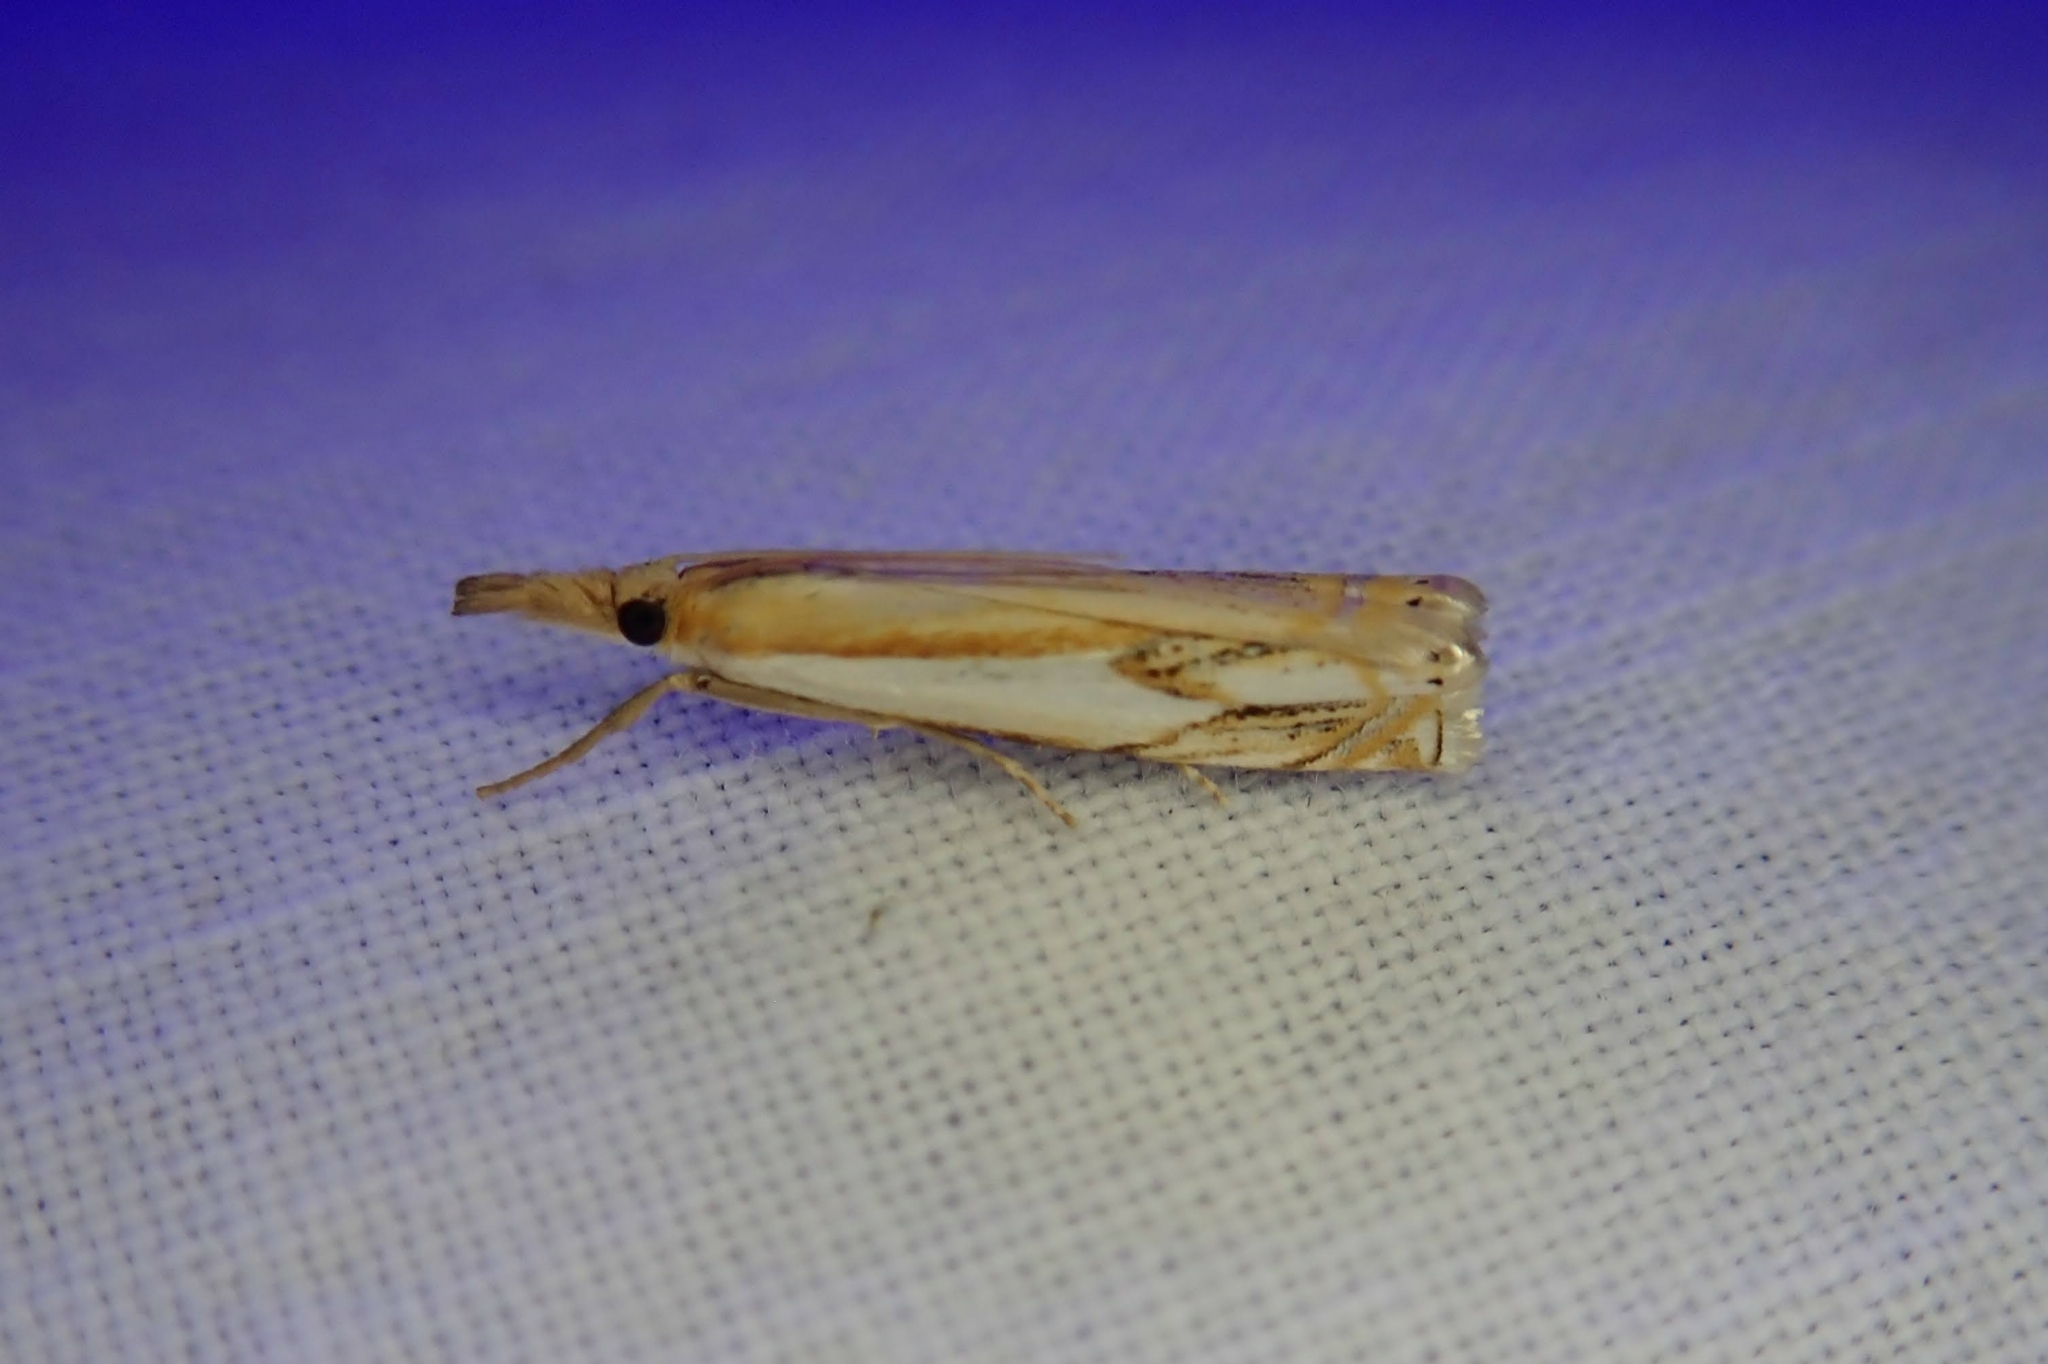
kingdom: Animalia
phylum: Arthropoda
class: Insecta
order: Lepidoptera
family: Crambidae
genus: Crambus
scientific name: Crambus agitatellus
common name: Double-banded grass-veneer
